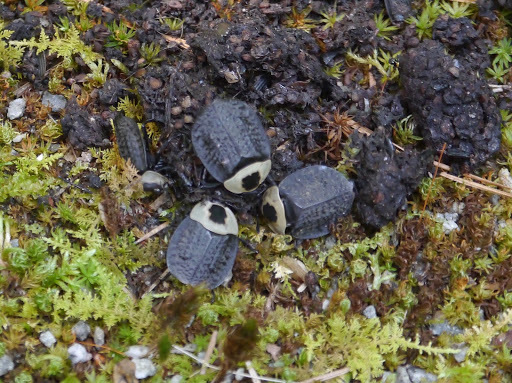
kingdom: Animalia
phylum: Arthropoda
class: Insecta
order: Coleoptera
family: Staphylinidae
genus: Necrophila
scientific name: Necrophila americana
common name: American carrion beetle
